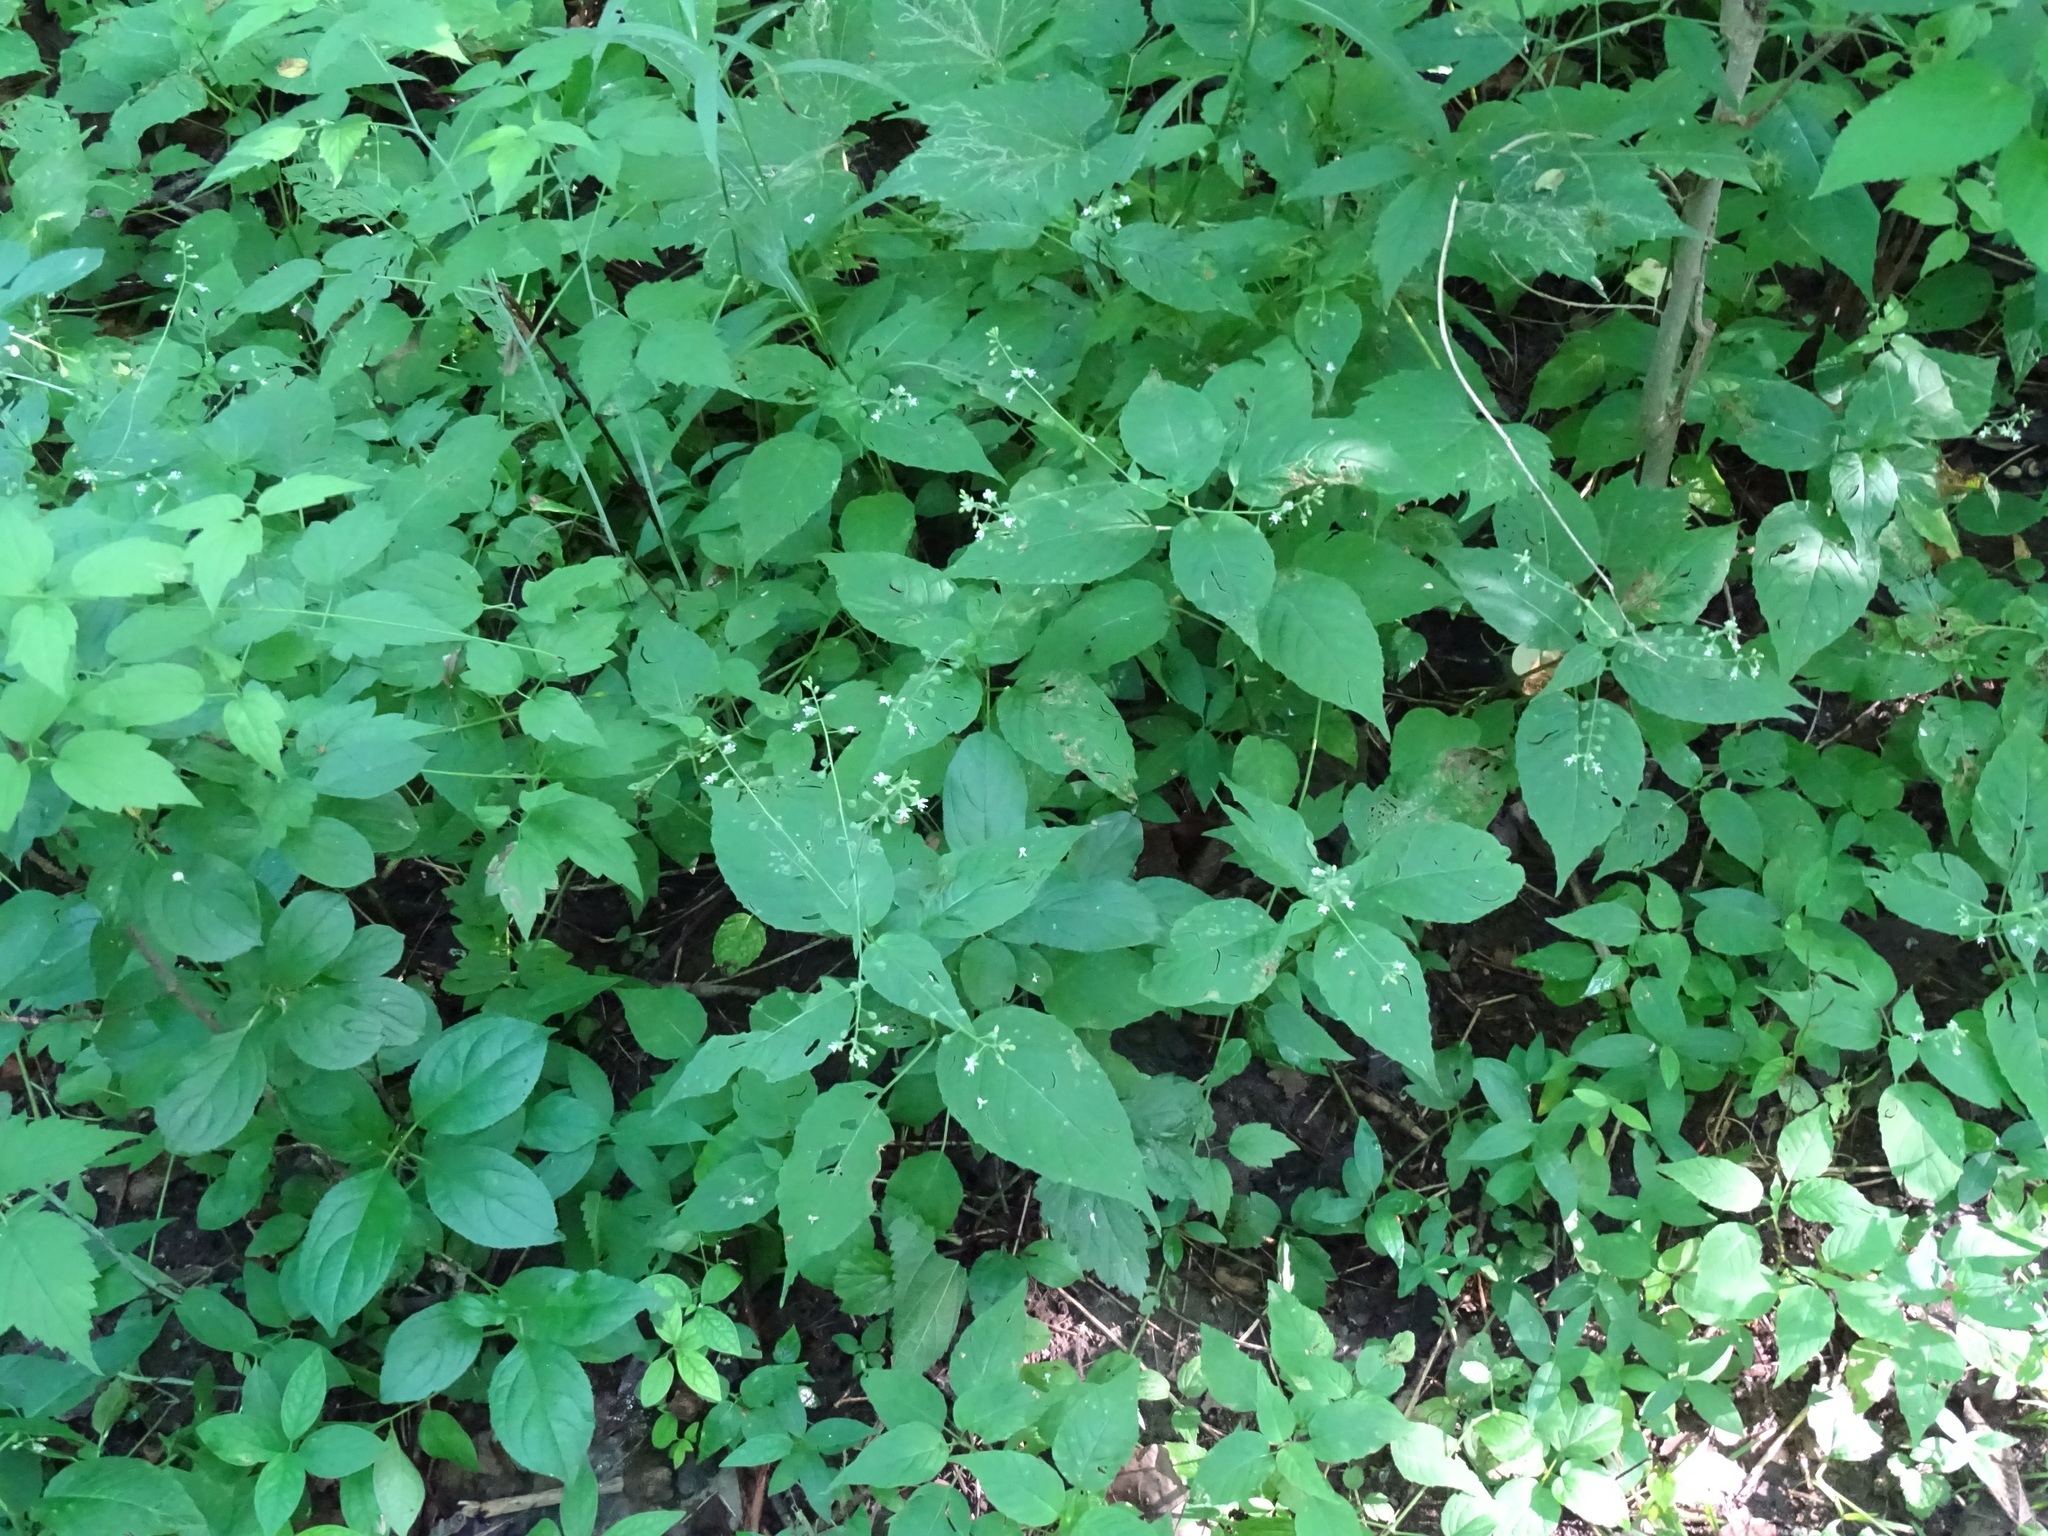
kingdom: Plantae
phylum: Tracheophyta
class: Magnoliopsida
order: Myrtales
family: Onagraceae
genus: Circaea
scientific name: Circaea canadensis
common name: Broad-leaved enchanter's nightshade
